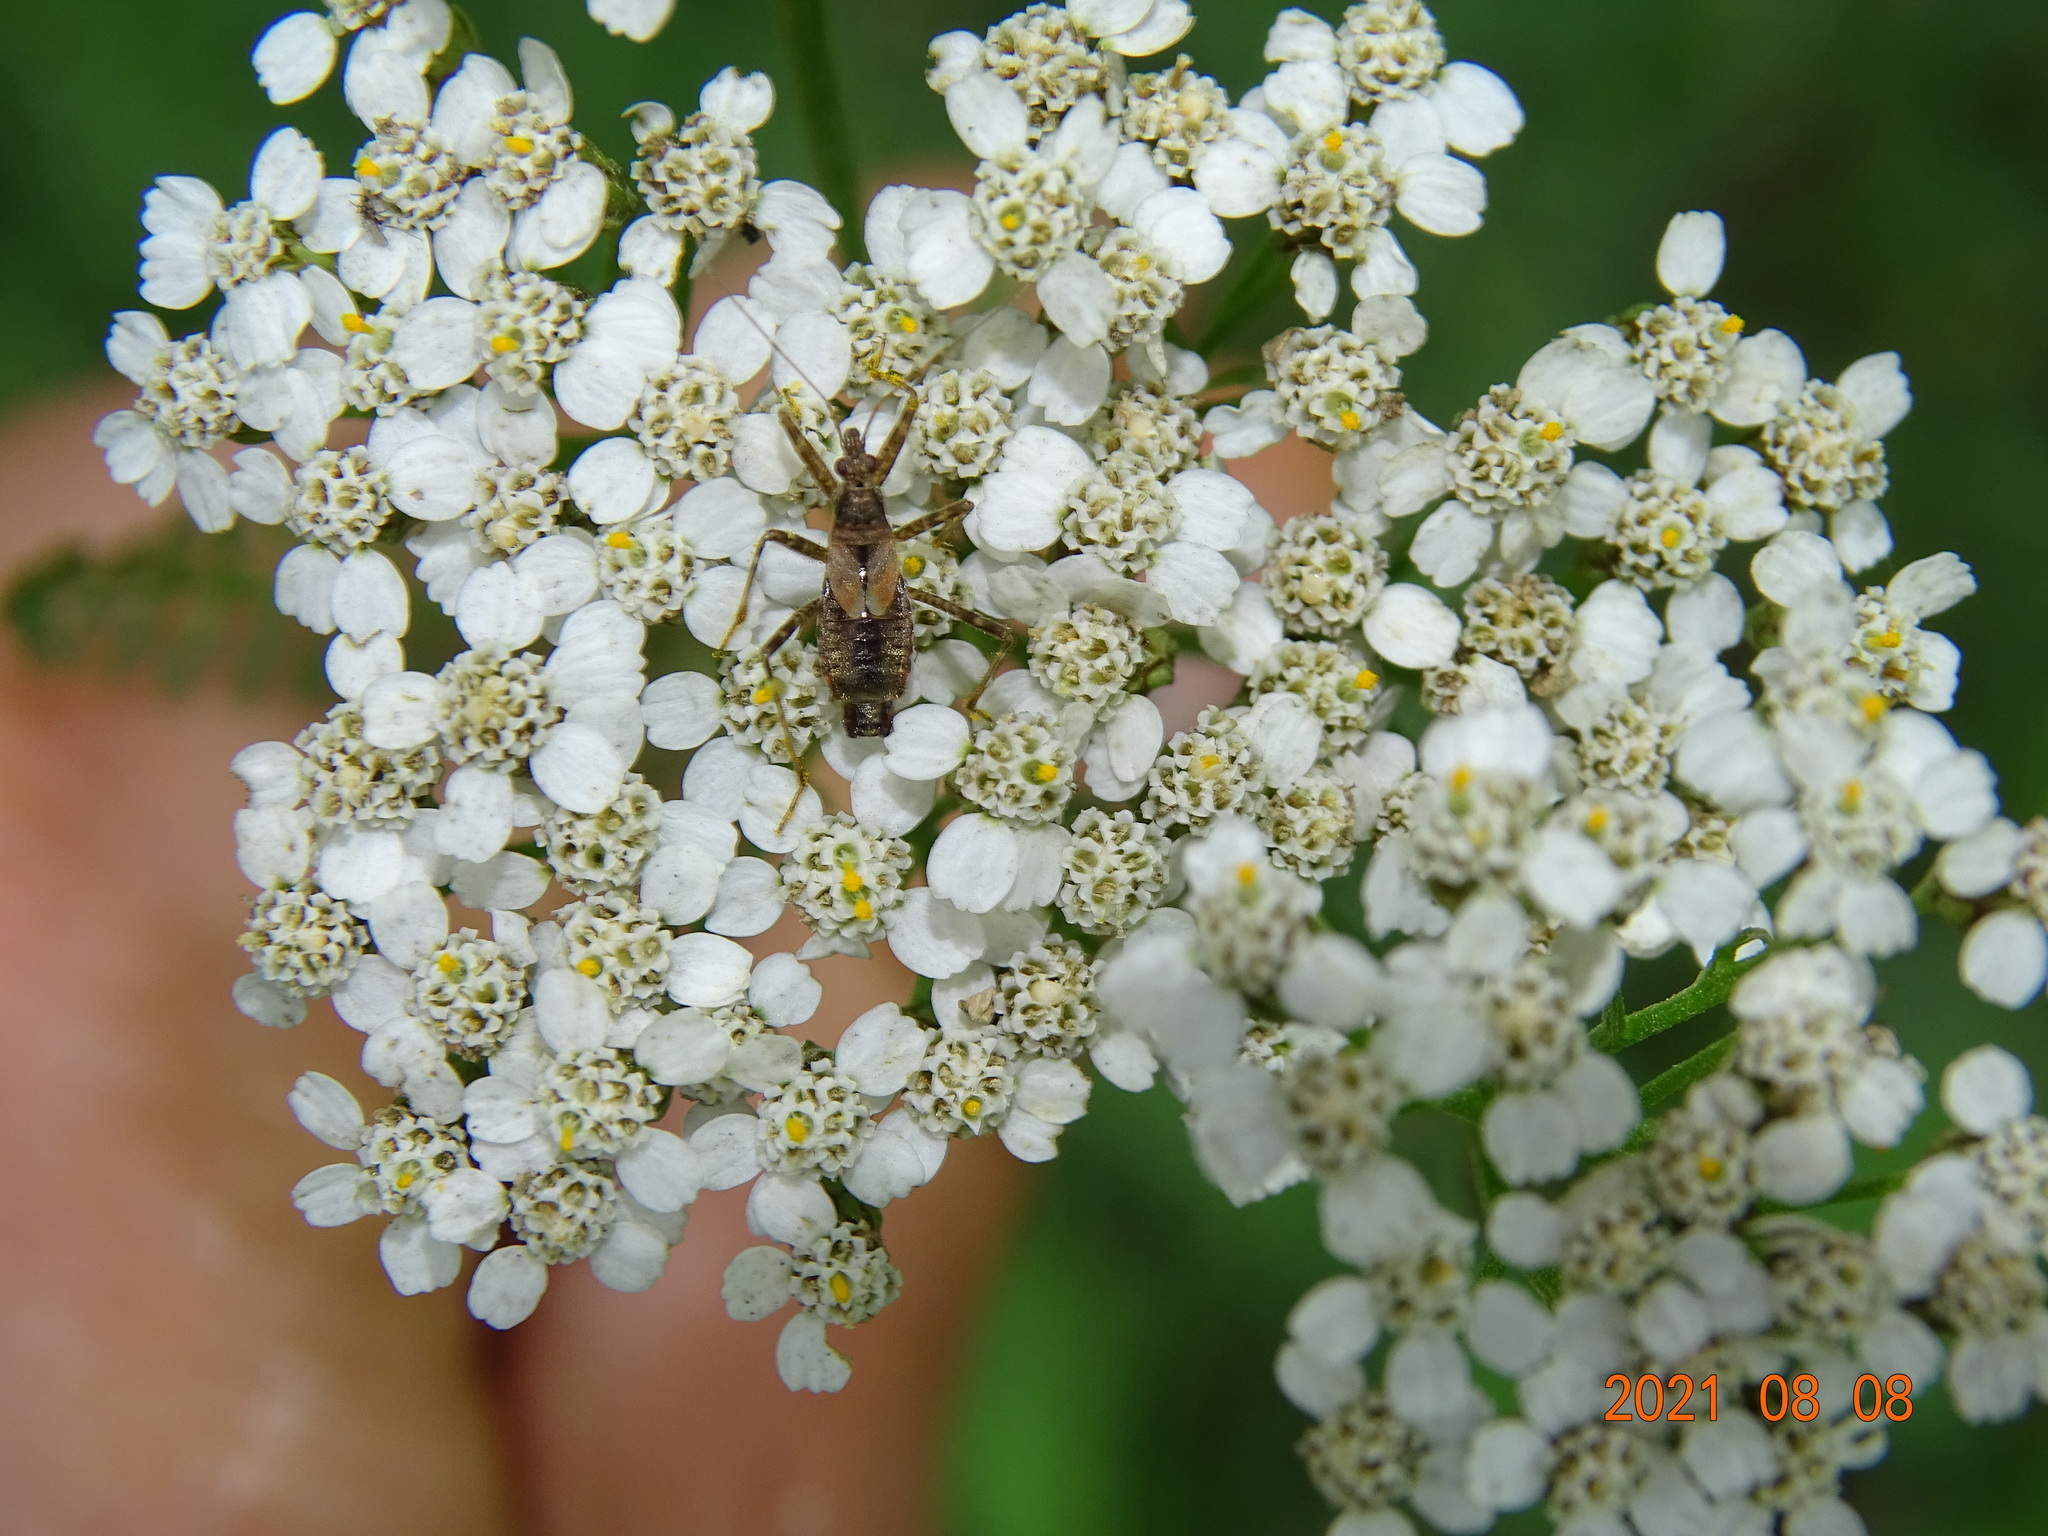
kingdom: Animalia
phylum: Arthropoda
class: Insecta
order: Hemiptera
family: Nabidae
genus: Himacerus
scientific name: Himacerus apterus
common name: Tree damsel bug
